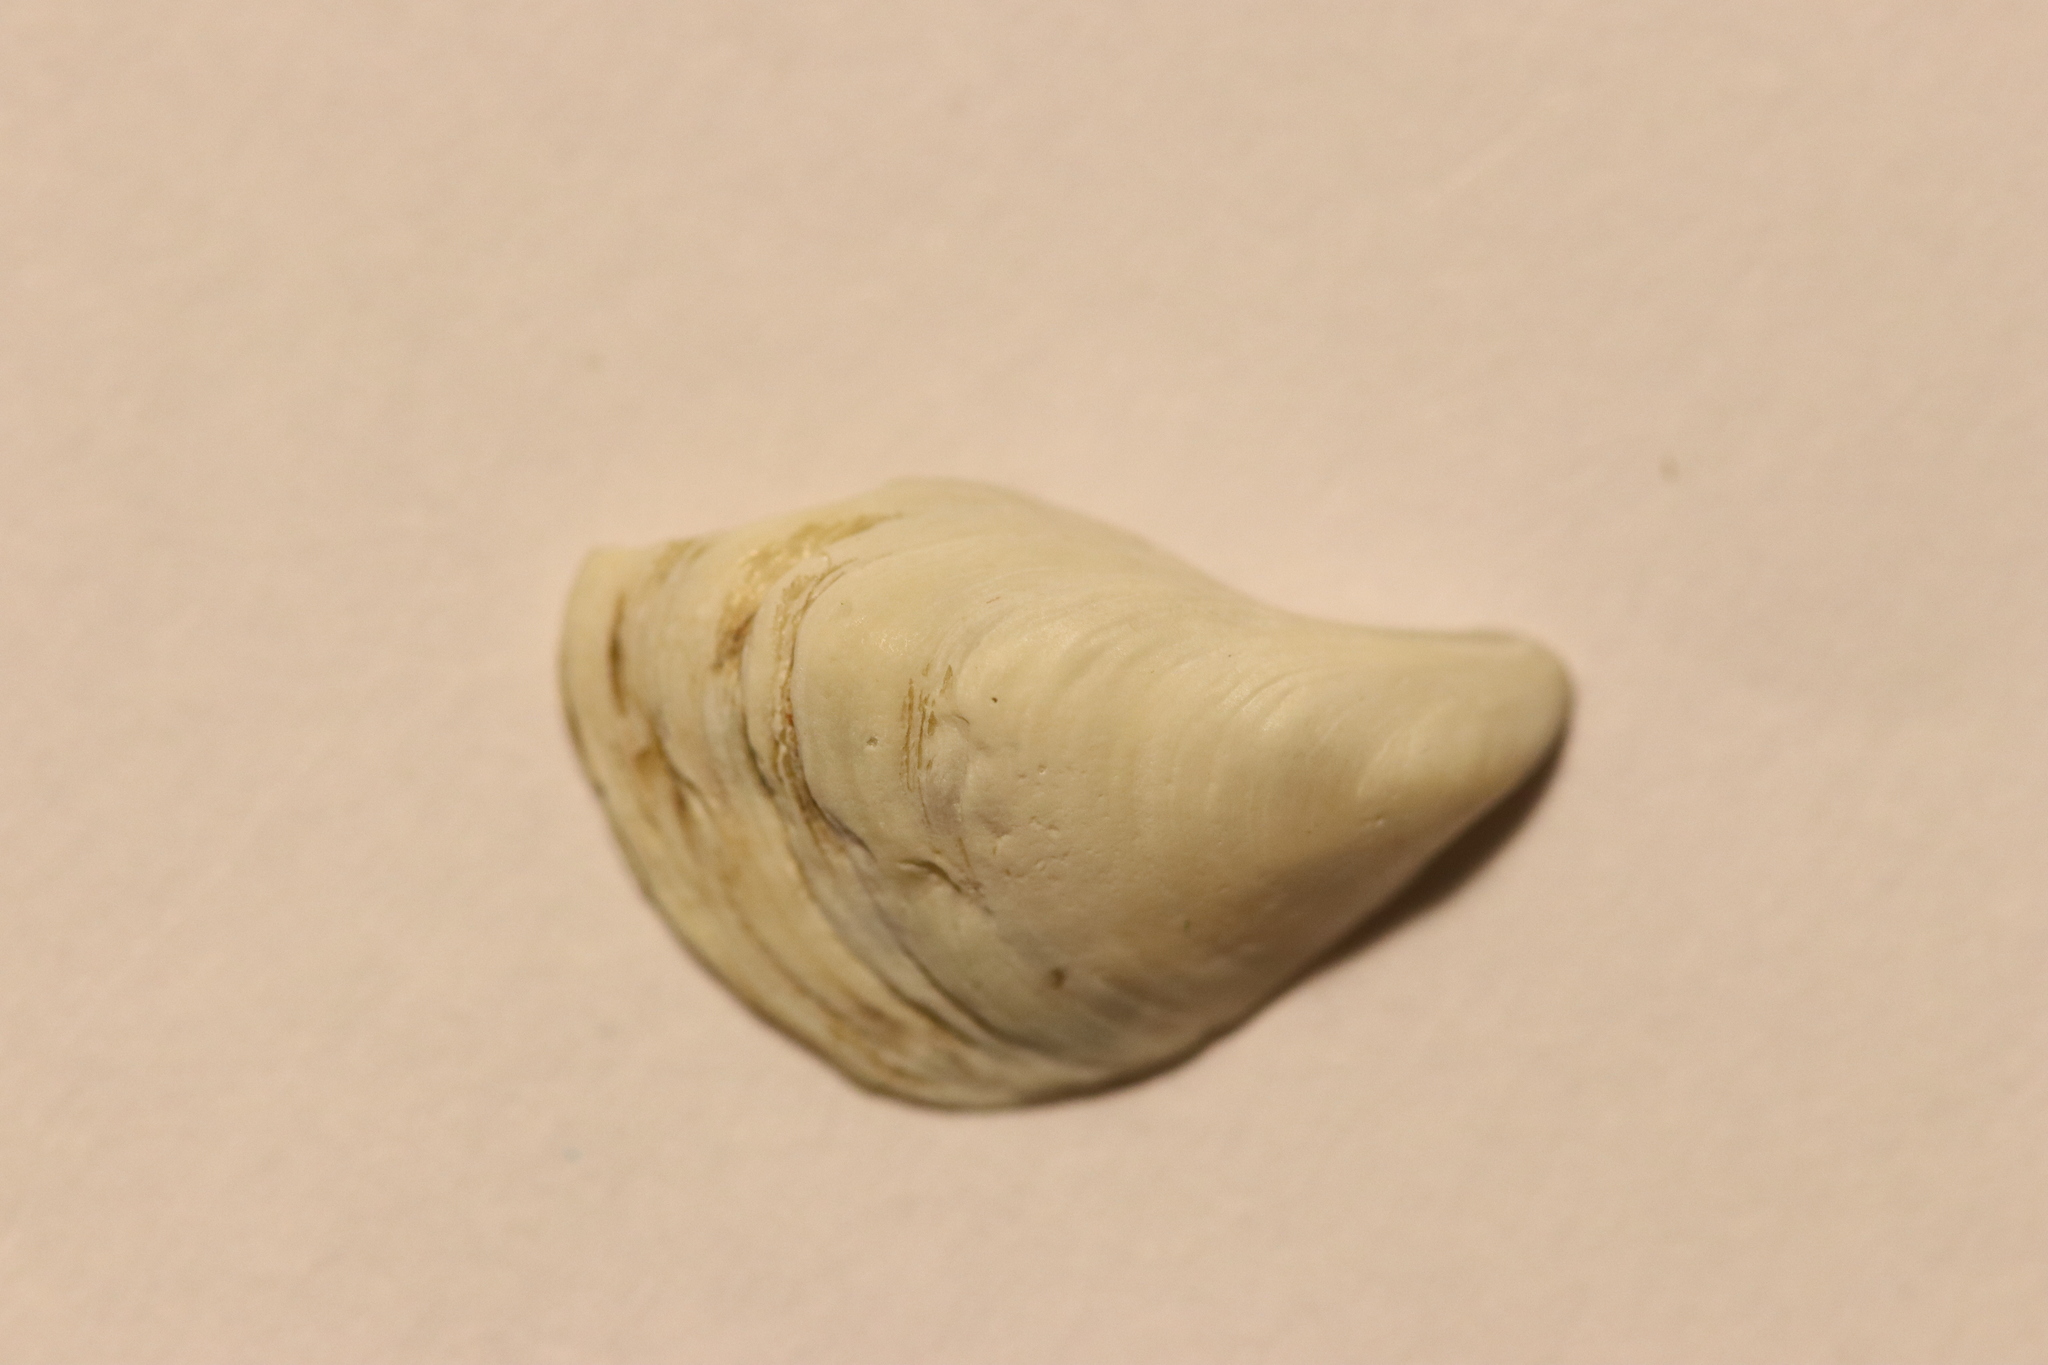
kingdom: Animalia
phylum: Mollusca
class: Bivalvia
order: Myida
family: Dreissenidae
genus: Dreissena
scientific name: Dreissena bugensis
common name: Quagga mussel
